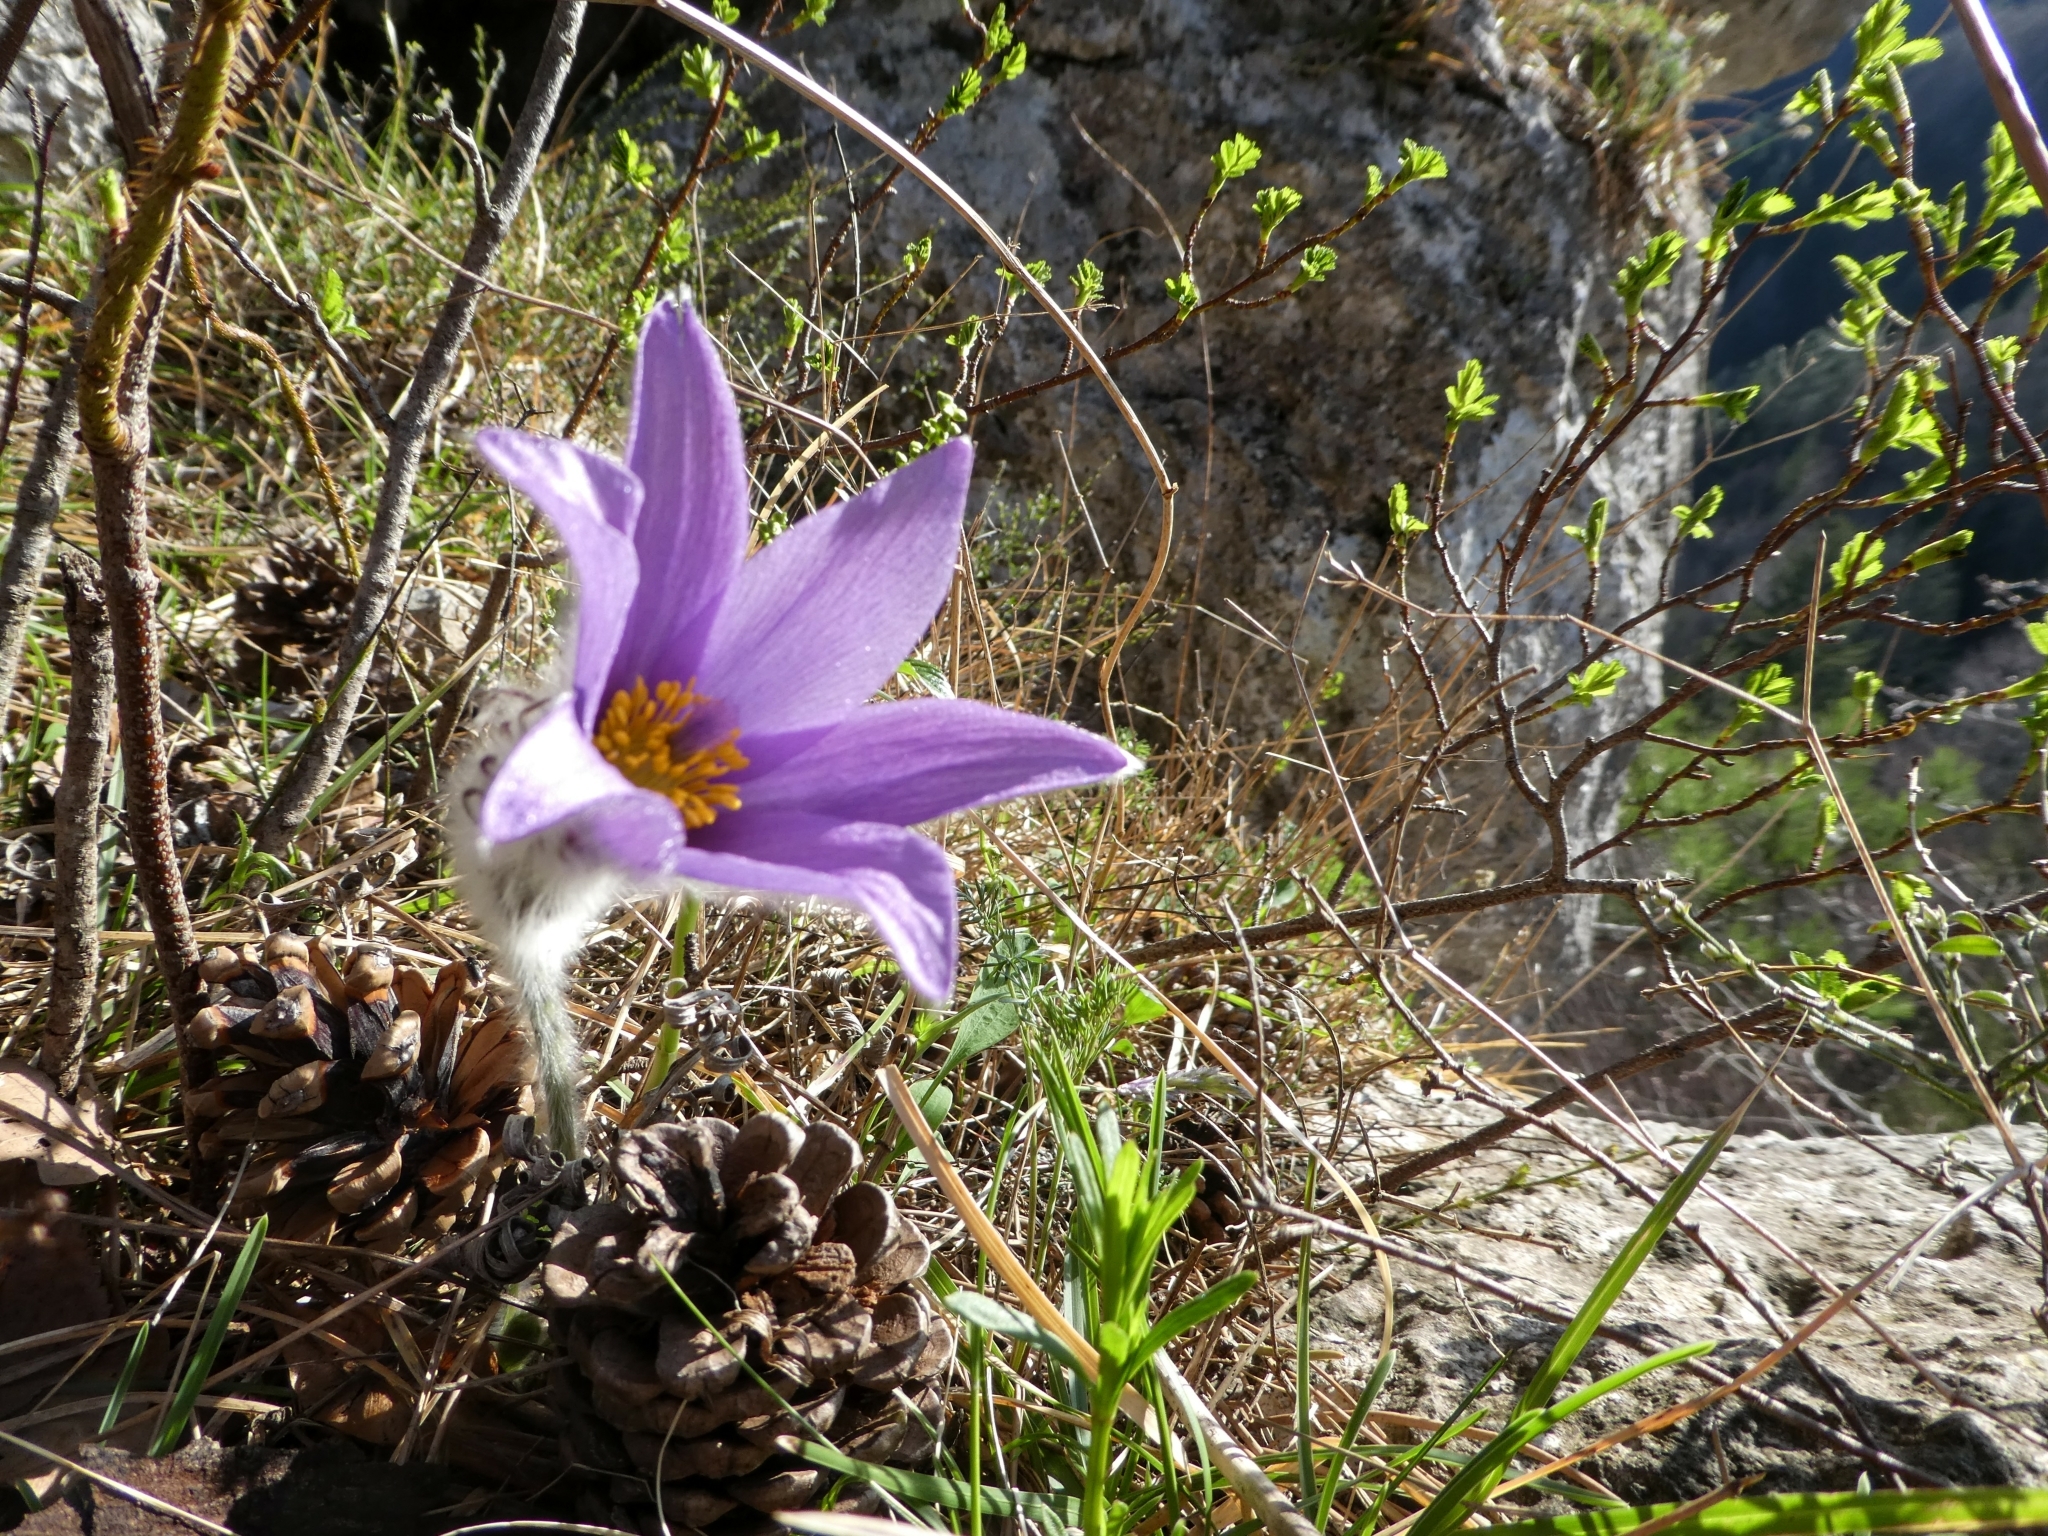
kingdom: Plantae
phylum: Tracheophyta
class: Magnoliopsida
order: Ranunculales
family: Ranunculaceae
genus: Pulsatilla
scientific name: Pulsatilla grandis
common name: Greater pasque flower
